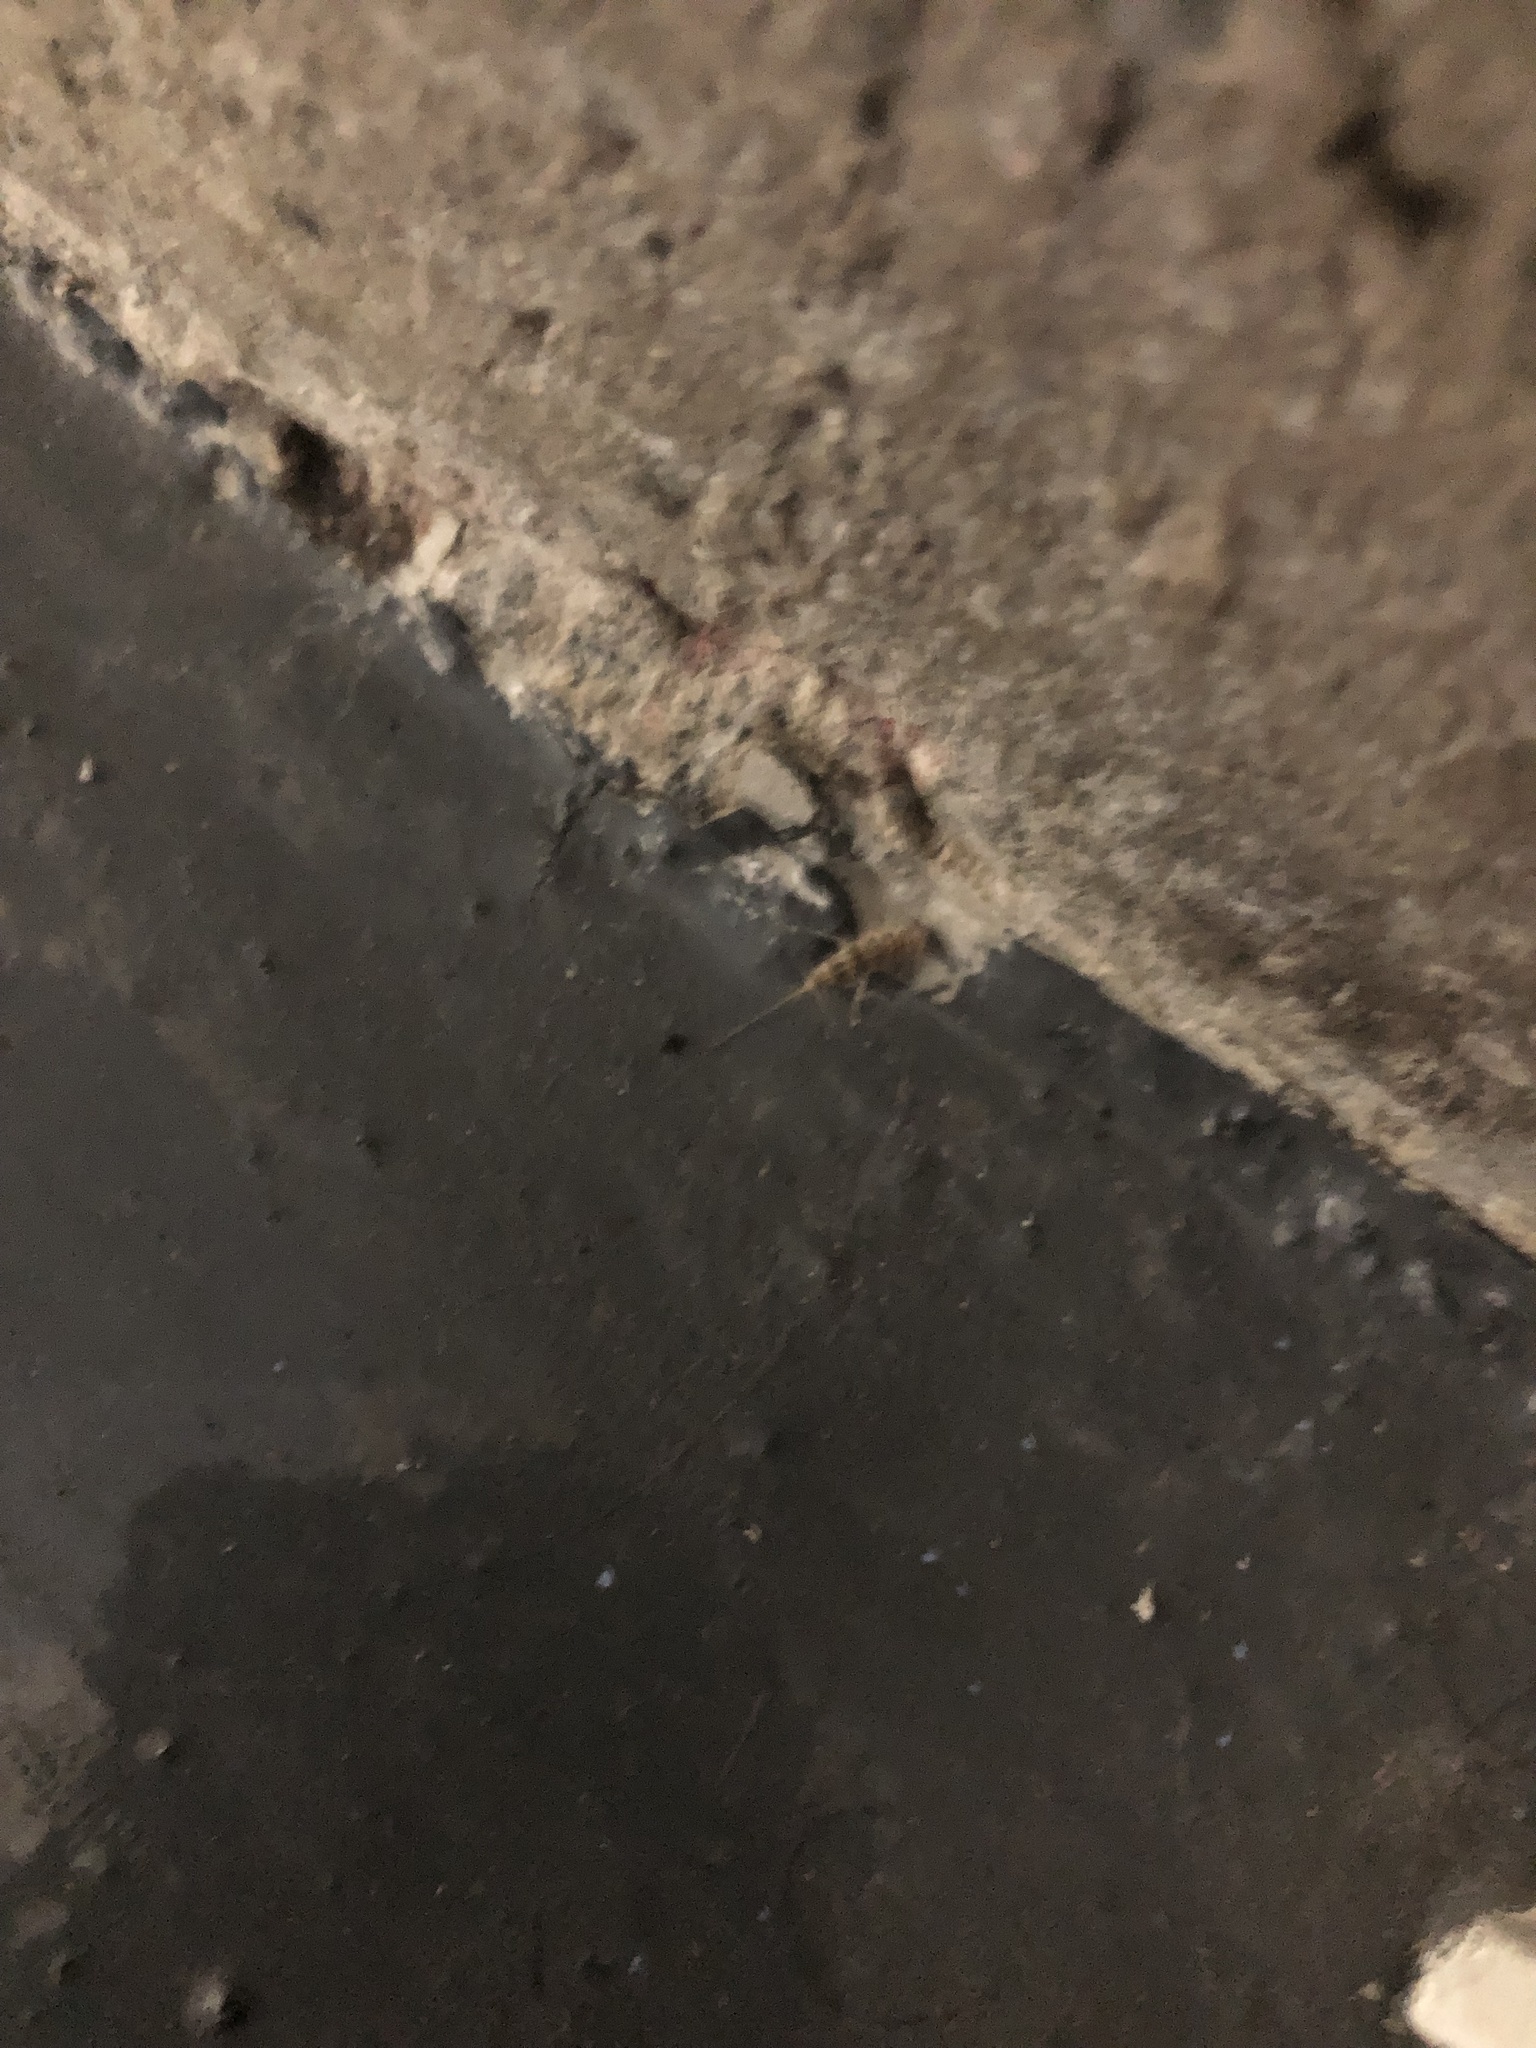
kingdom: Animalia
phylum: Arthropoda
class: Insecta
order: Zygentoma
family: Lepismatidae
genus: Thermobia
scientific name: Thermobia domestica
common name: Firebrat
